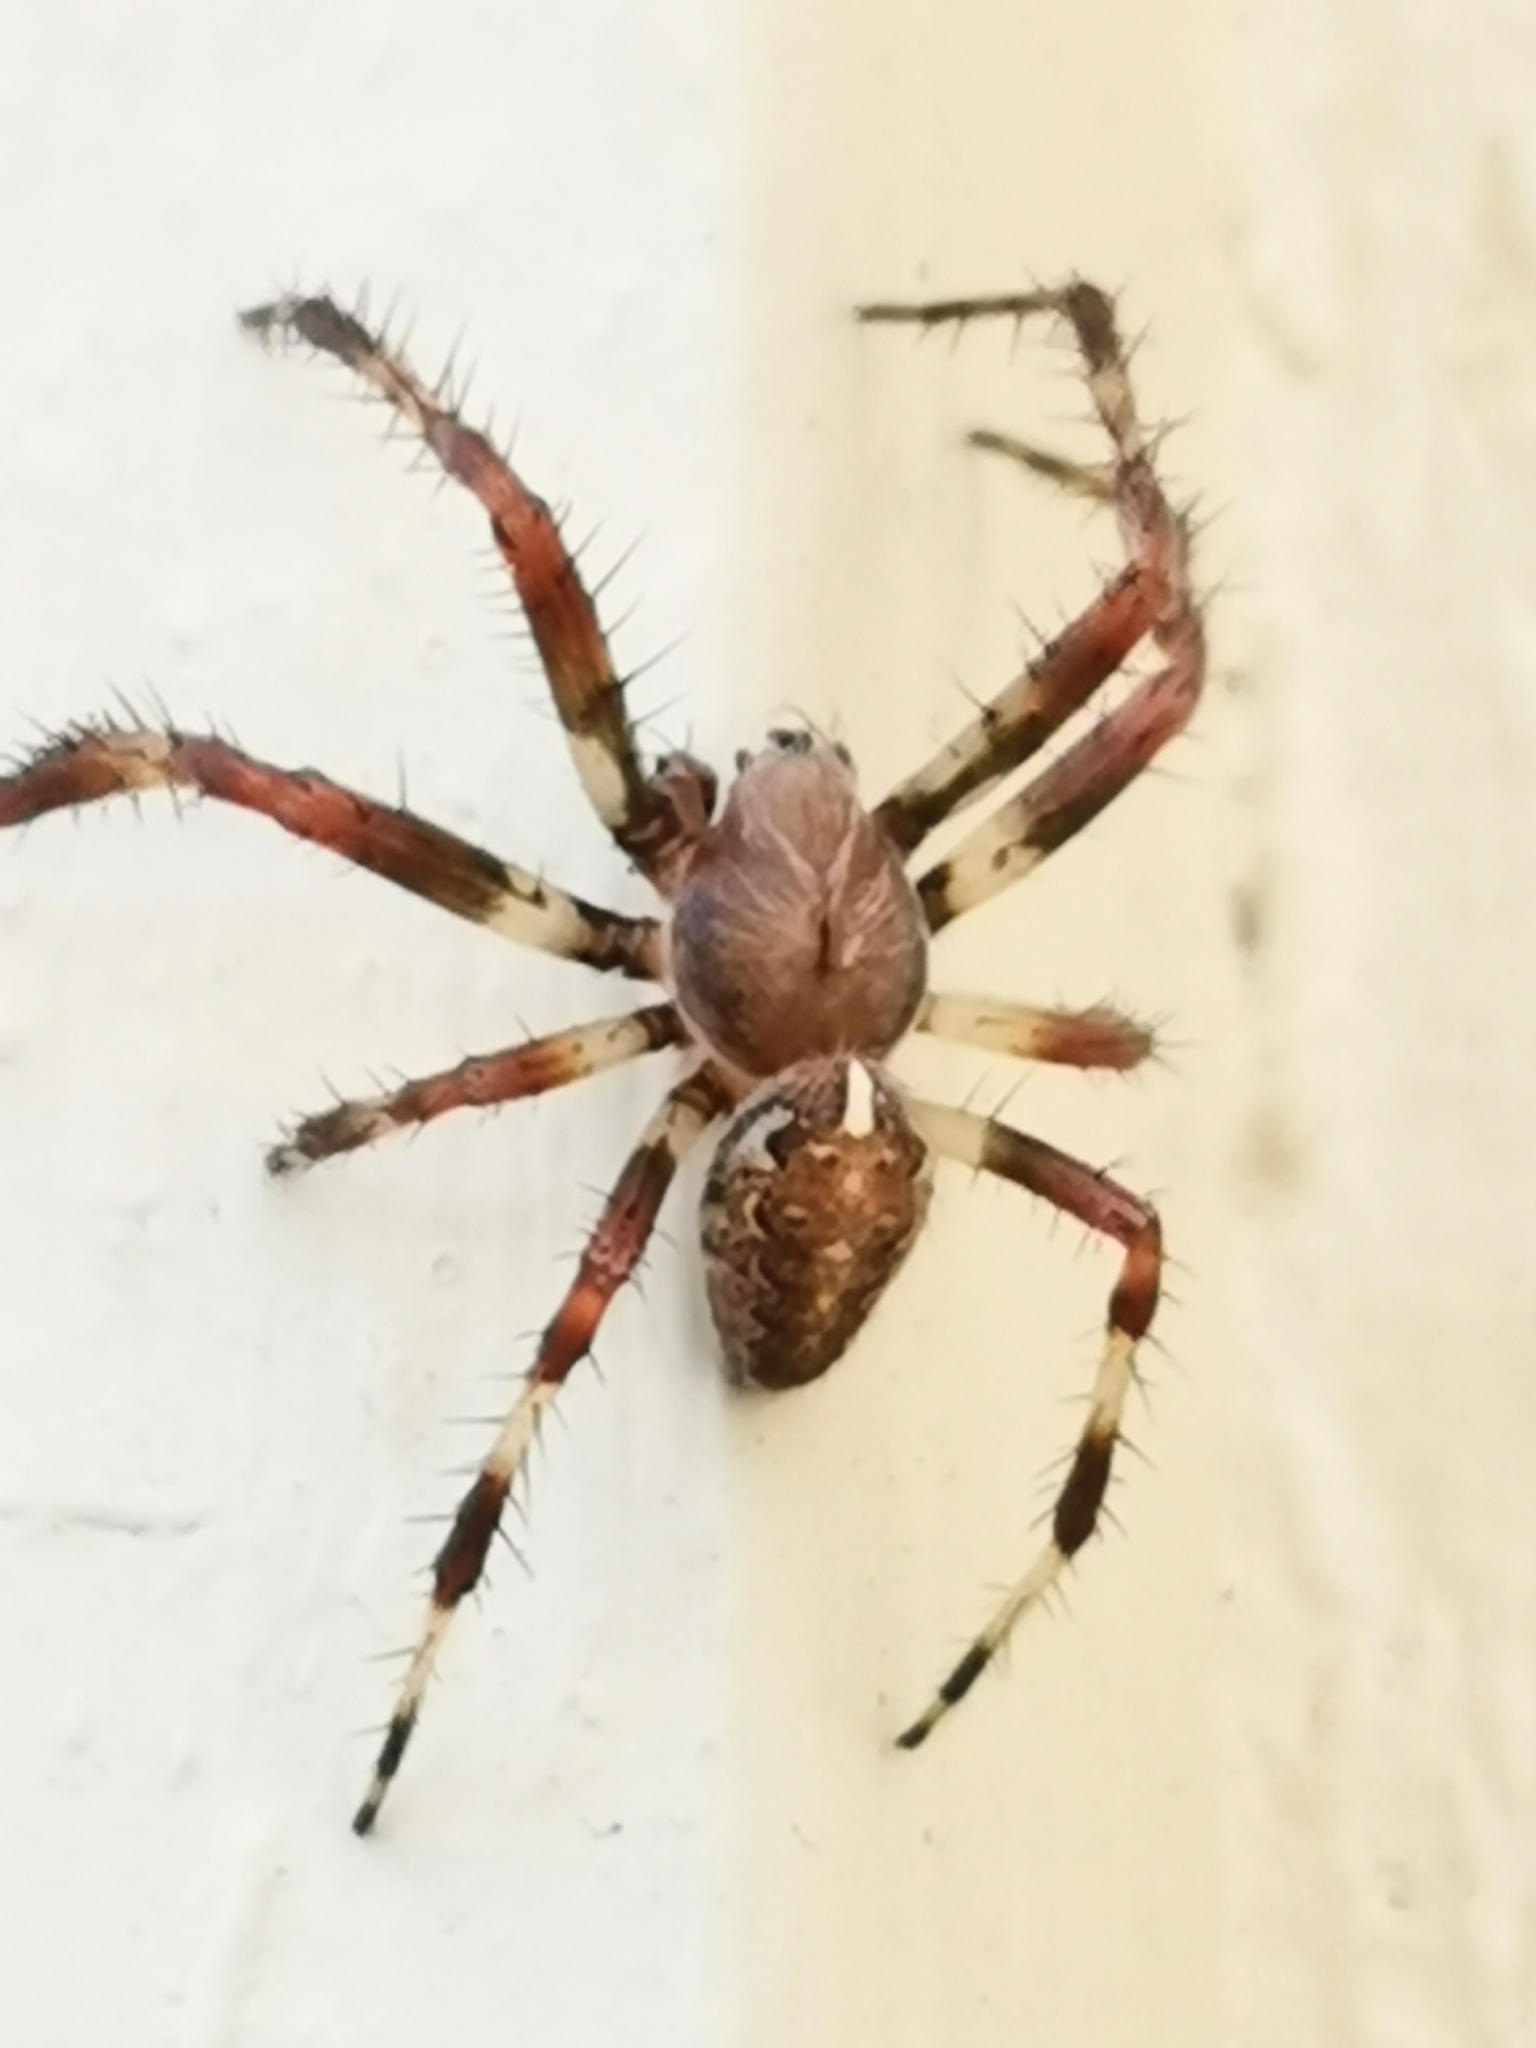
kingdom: Animalia
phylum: Arthropoda
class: Arachnida
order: Araneae
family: Araneidae
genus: Araneus
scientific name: Araneus marmoreus
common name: Marbled orbweaver
